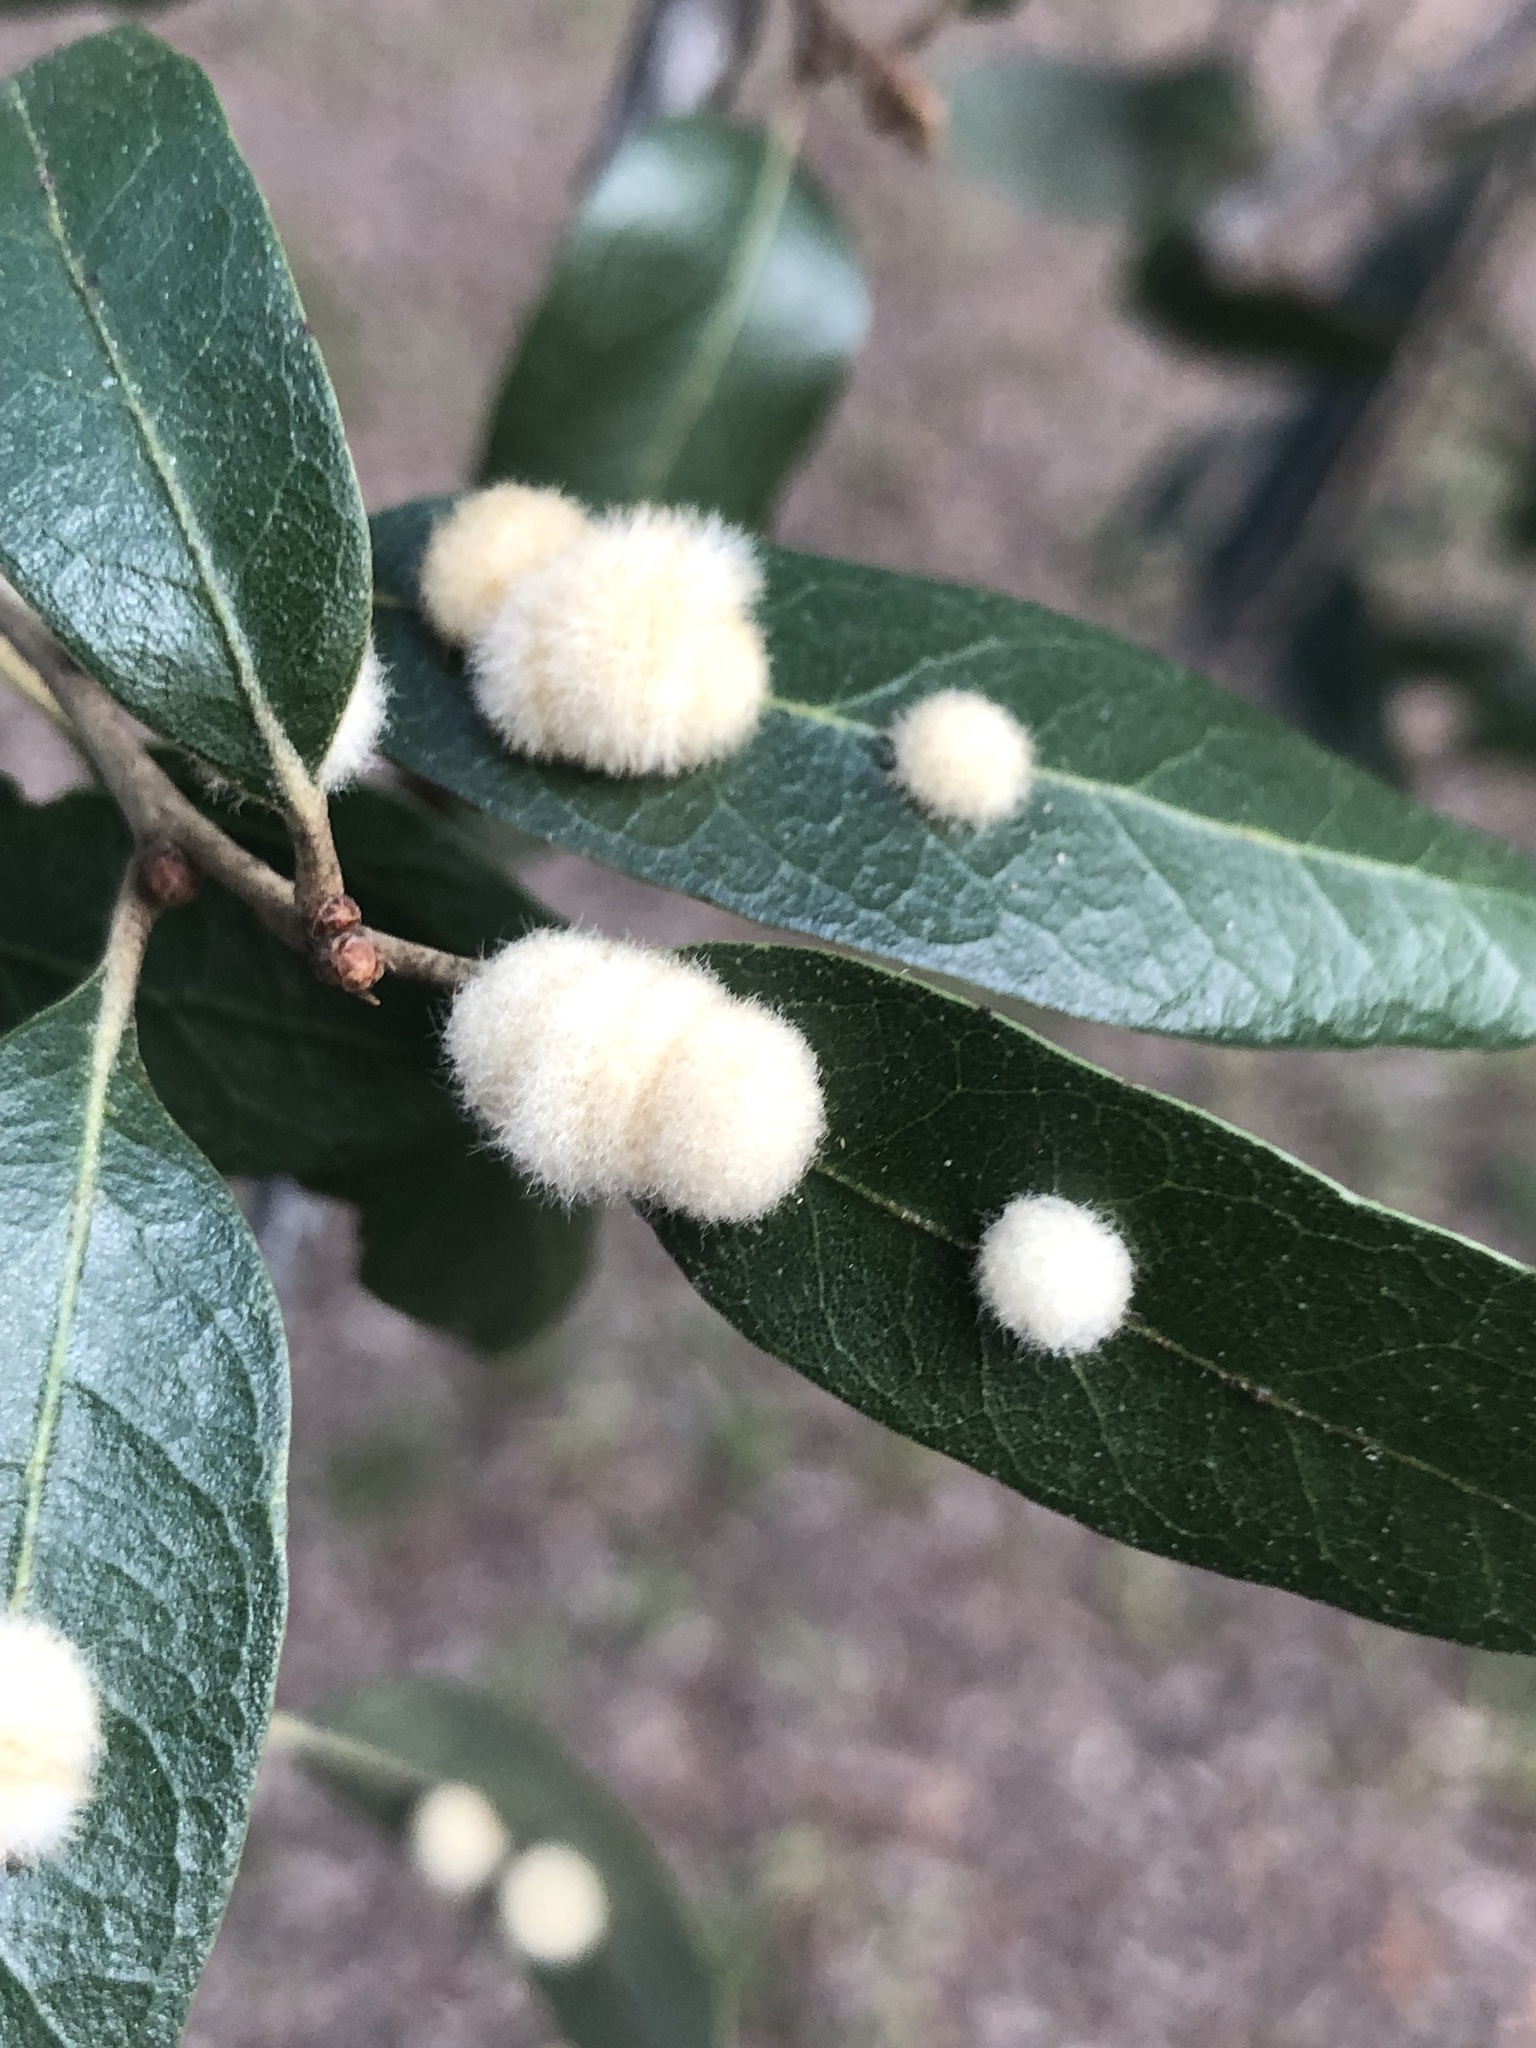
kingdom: Animalia
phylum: Arthropoda
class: Insecta
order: Hymenoptera
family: Cynipidae
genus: Andricus
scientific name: Andricus Druon quercuslanigerum
